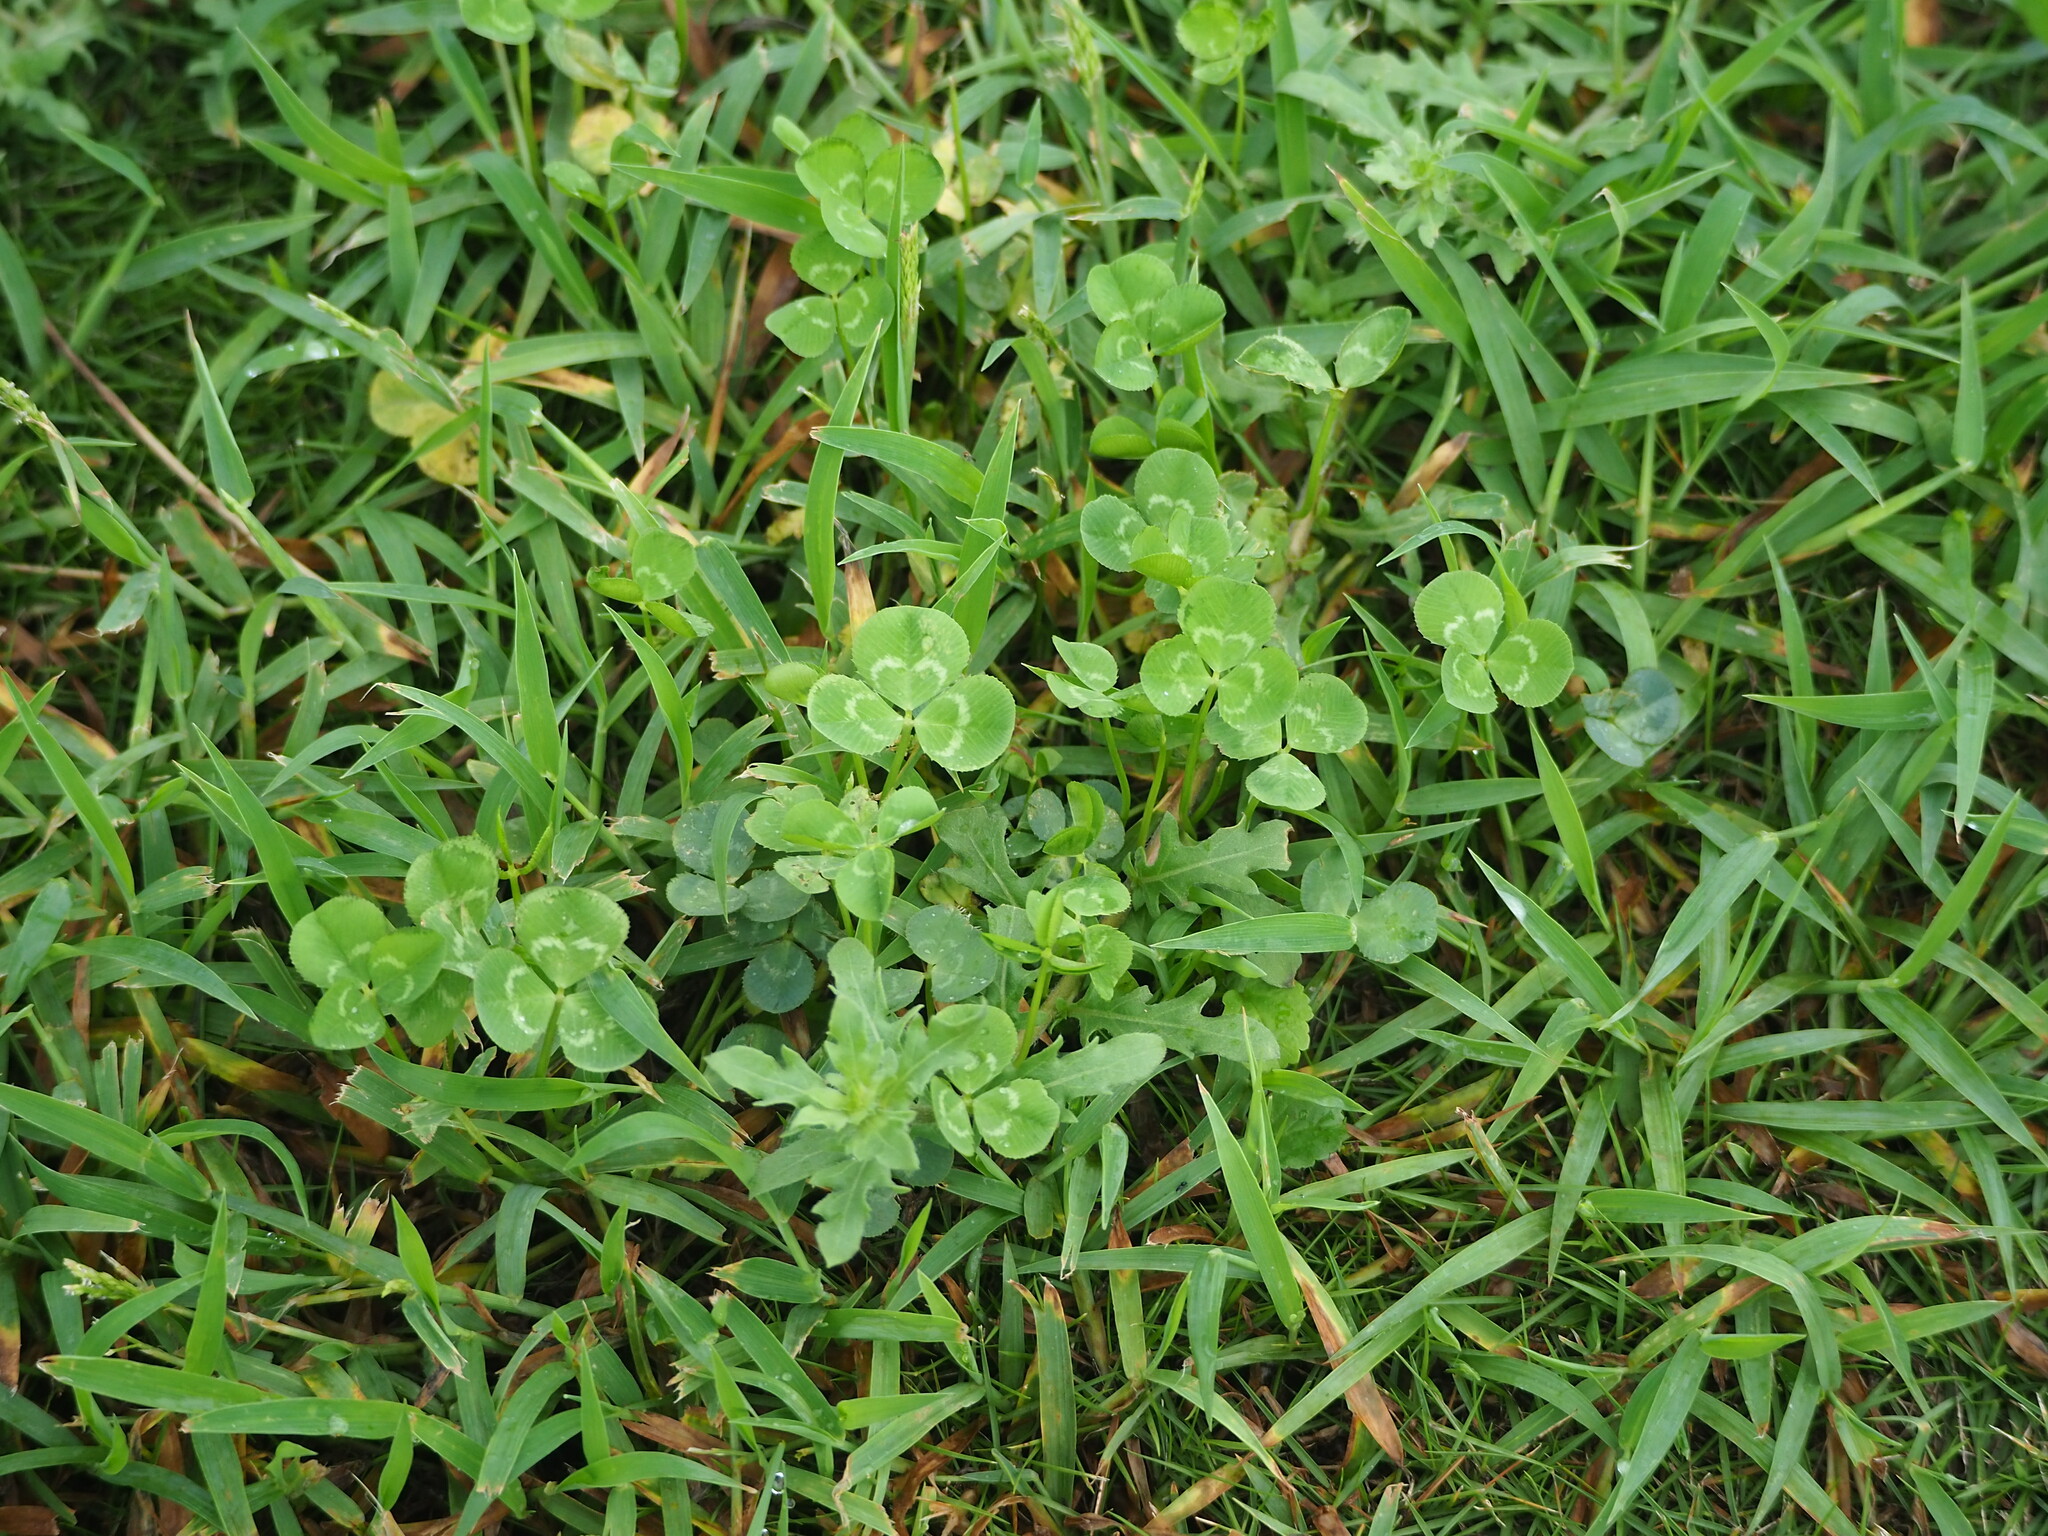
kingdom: Plantae
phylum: Tracheophyta
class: Magnoliopsida
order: Fabales
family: Fabaceae
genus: Trifolium
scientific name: Trifolium repens
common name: White clover
